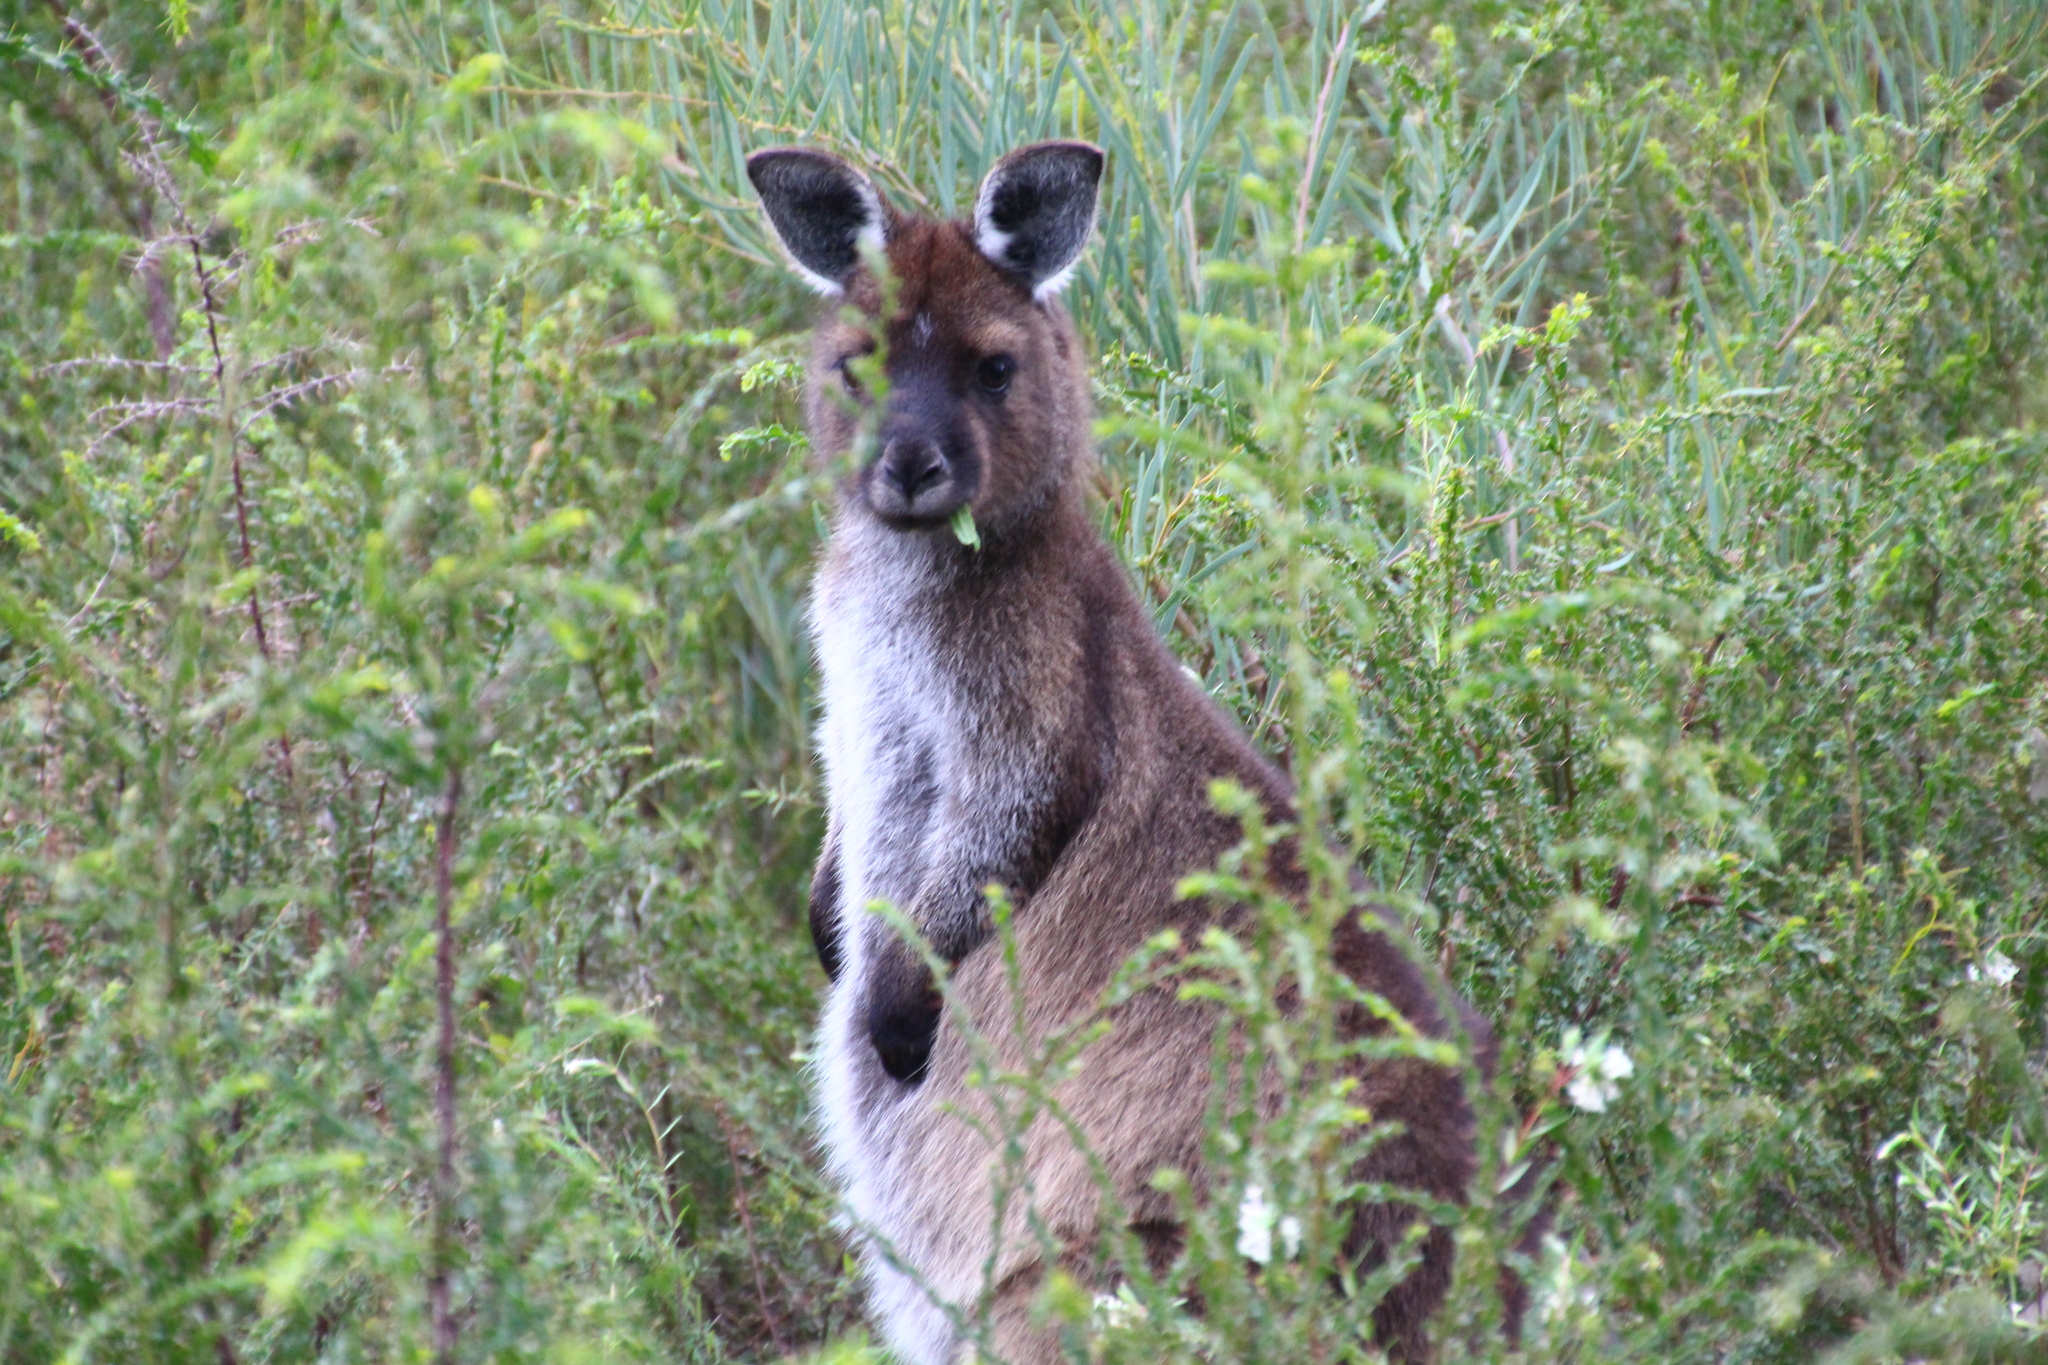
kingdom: Animalia
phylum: Chordata
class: Mammalia
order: Diprotodontia
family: Macropodidae
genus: Macropus
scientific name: Macropus fuliginosus
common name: Western grey kangaroo
